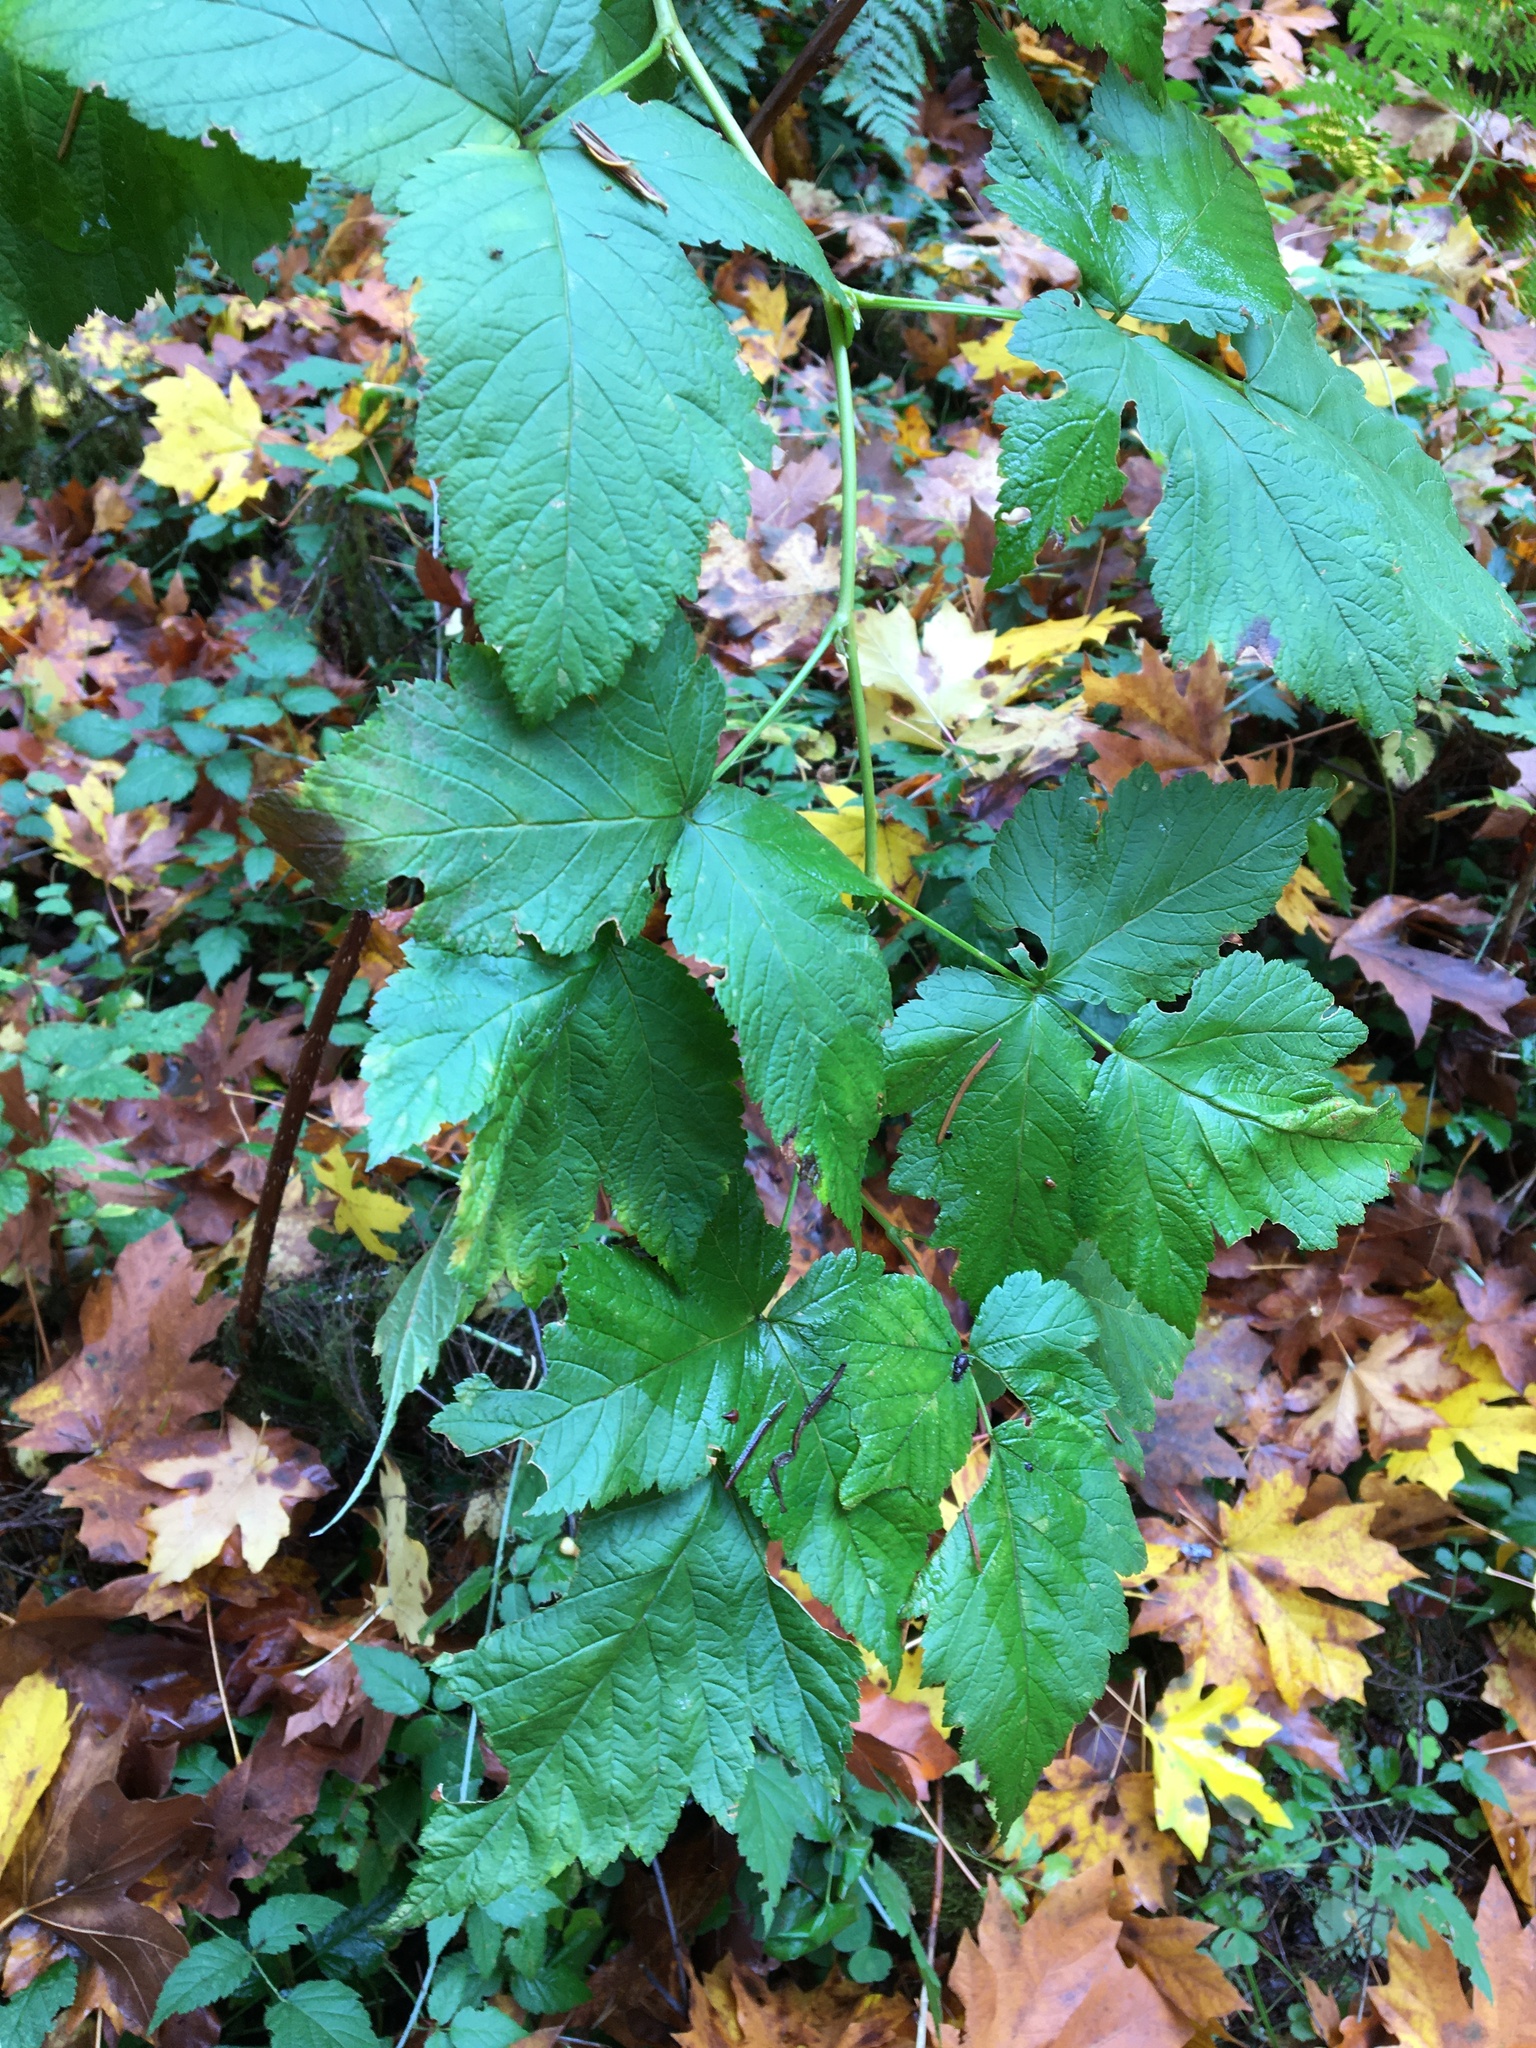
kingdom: Plantae
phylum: Tracheophyta
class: Magnoliopsida
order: Rosales
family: Rosaceae
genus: Rubus
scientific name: Rubus spectabilis
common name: Salmonberry
